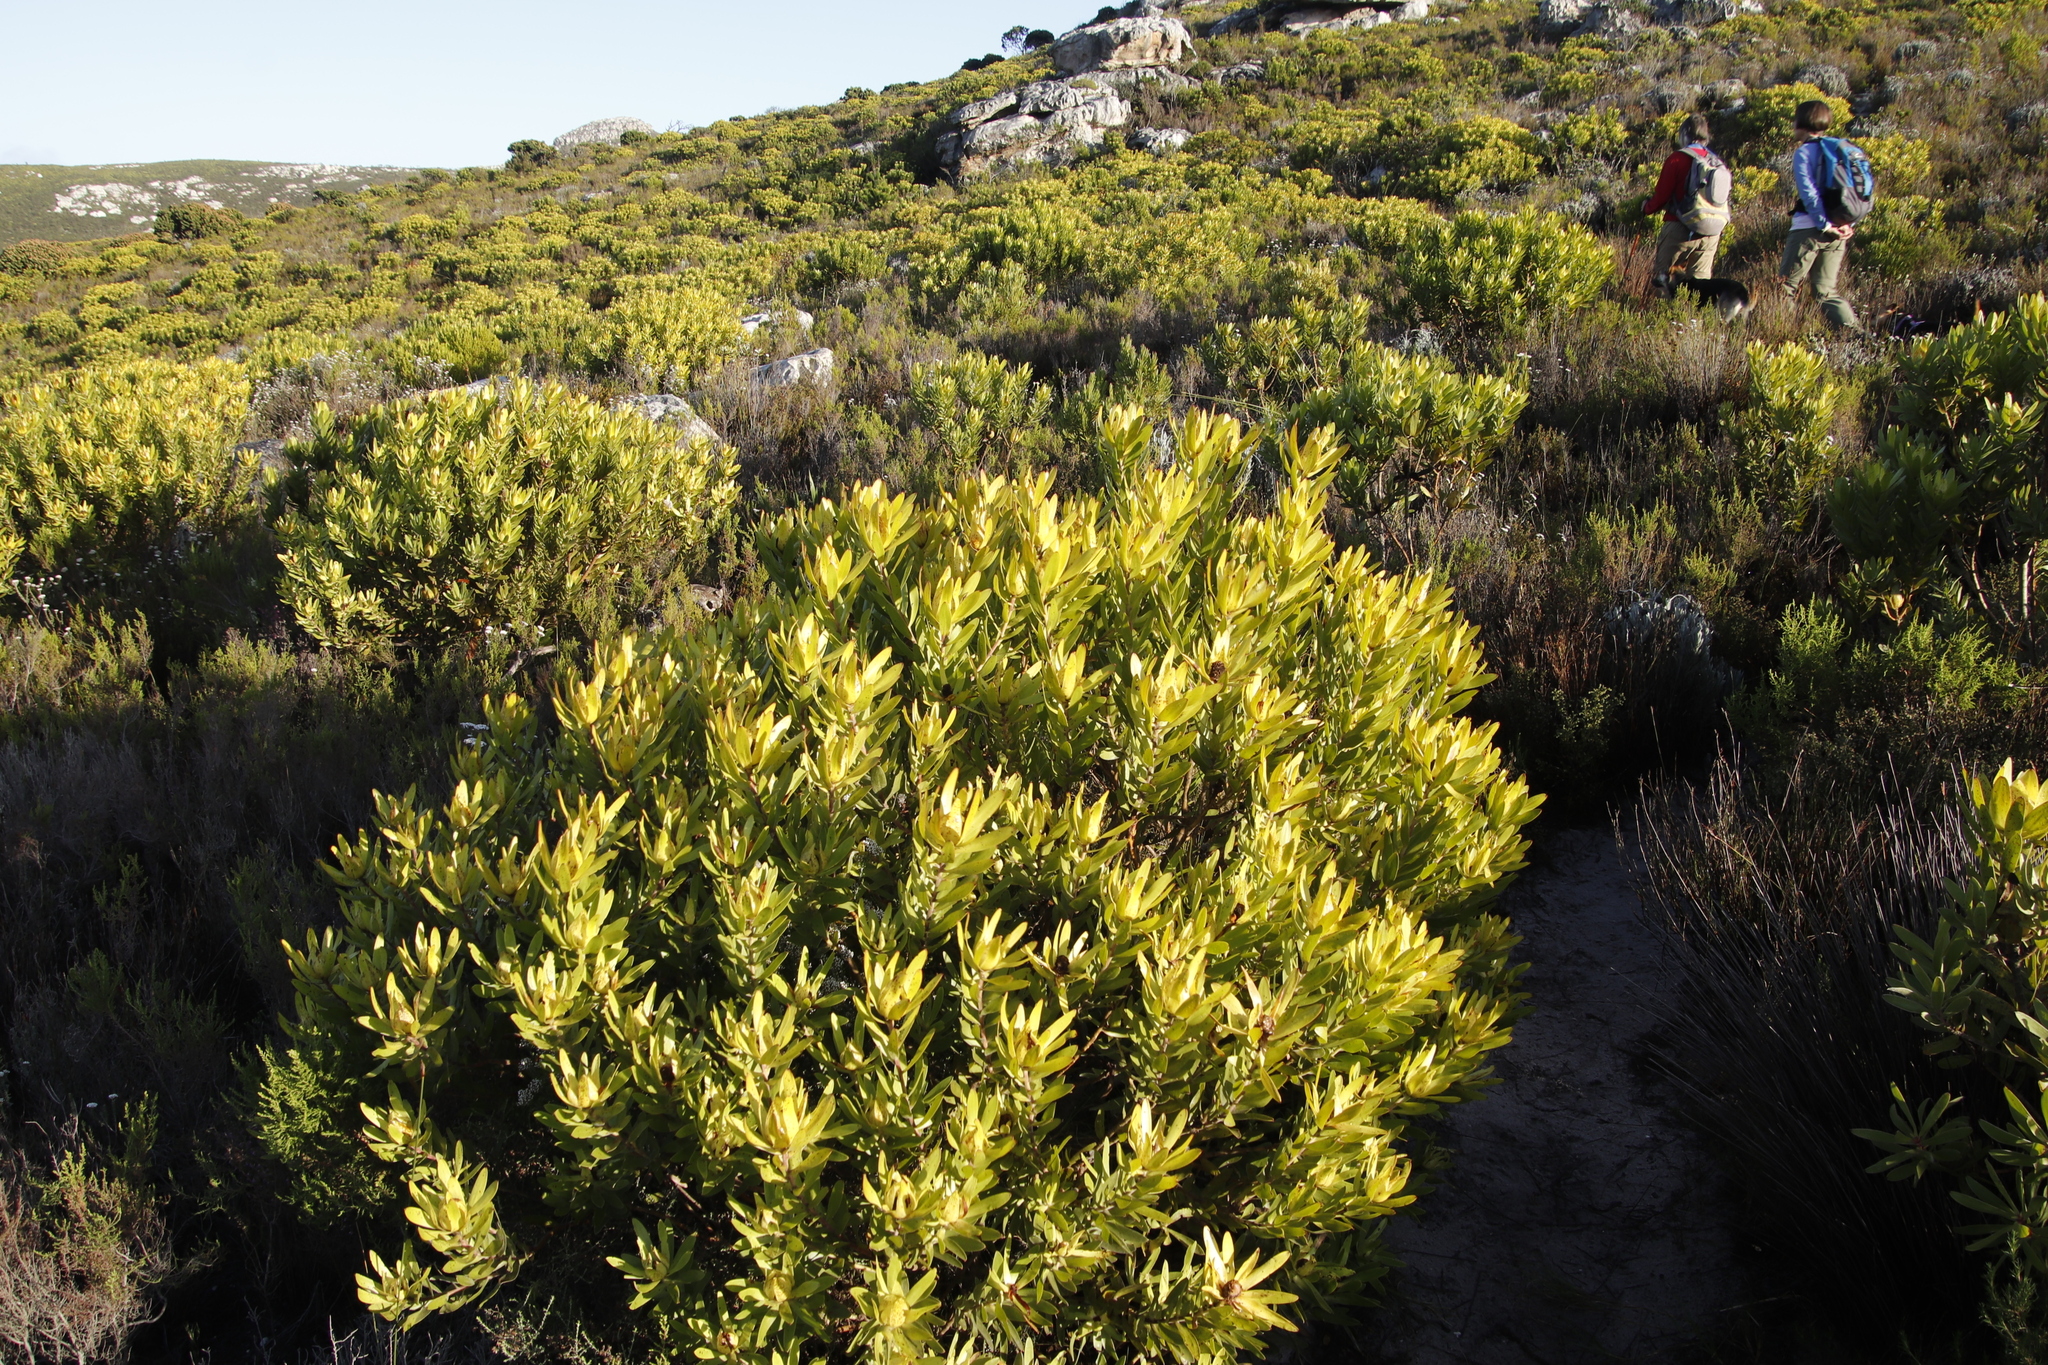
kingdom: Plantae
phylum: Tracheophyta
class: Magnoliopsida
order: Proteales
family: Proteaceae
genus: Leucadendron
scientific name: Leucadendron laureolum
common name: Golden sunshinebush
